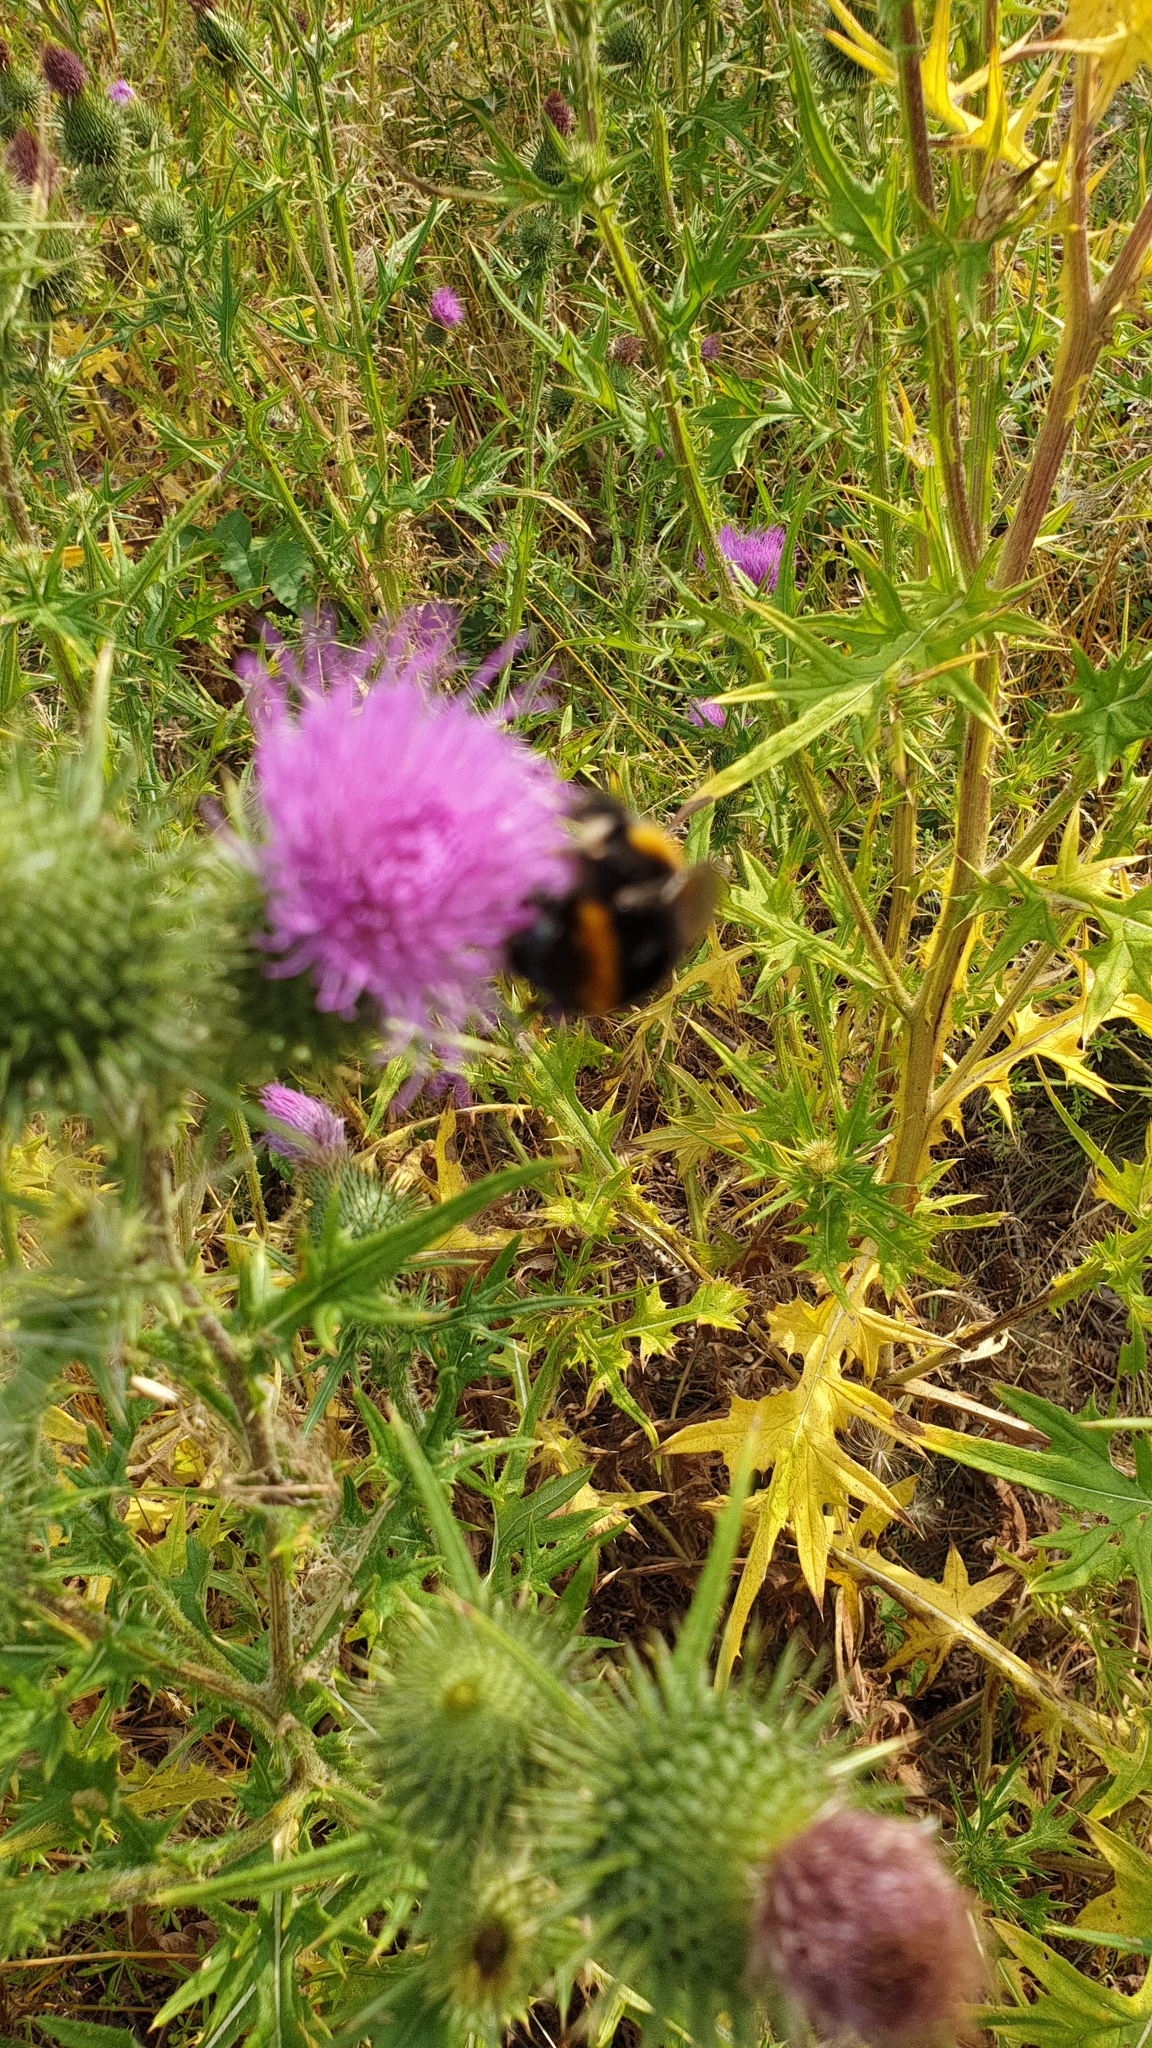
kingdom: Animalia
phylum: Arthropoda
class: Insecta
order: Hymenoptera
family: Apidae
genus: Bombus
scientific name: Bombus terrestris
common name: Buff-tailed bumblebee
